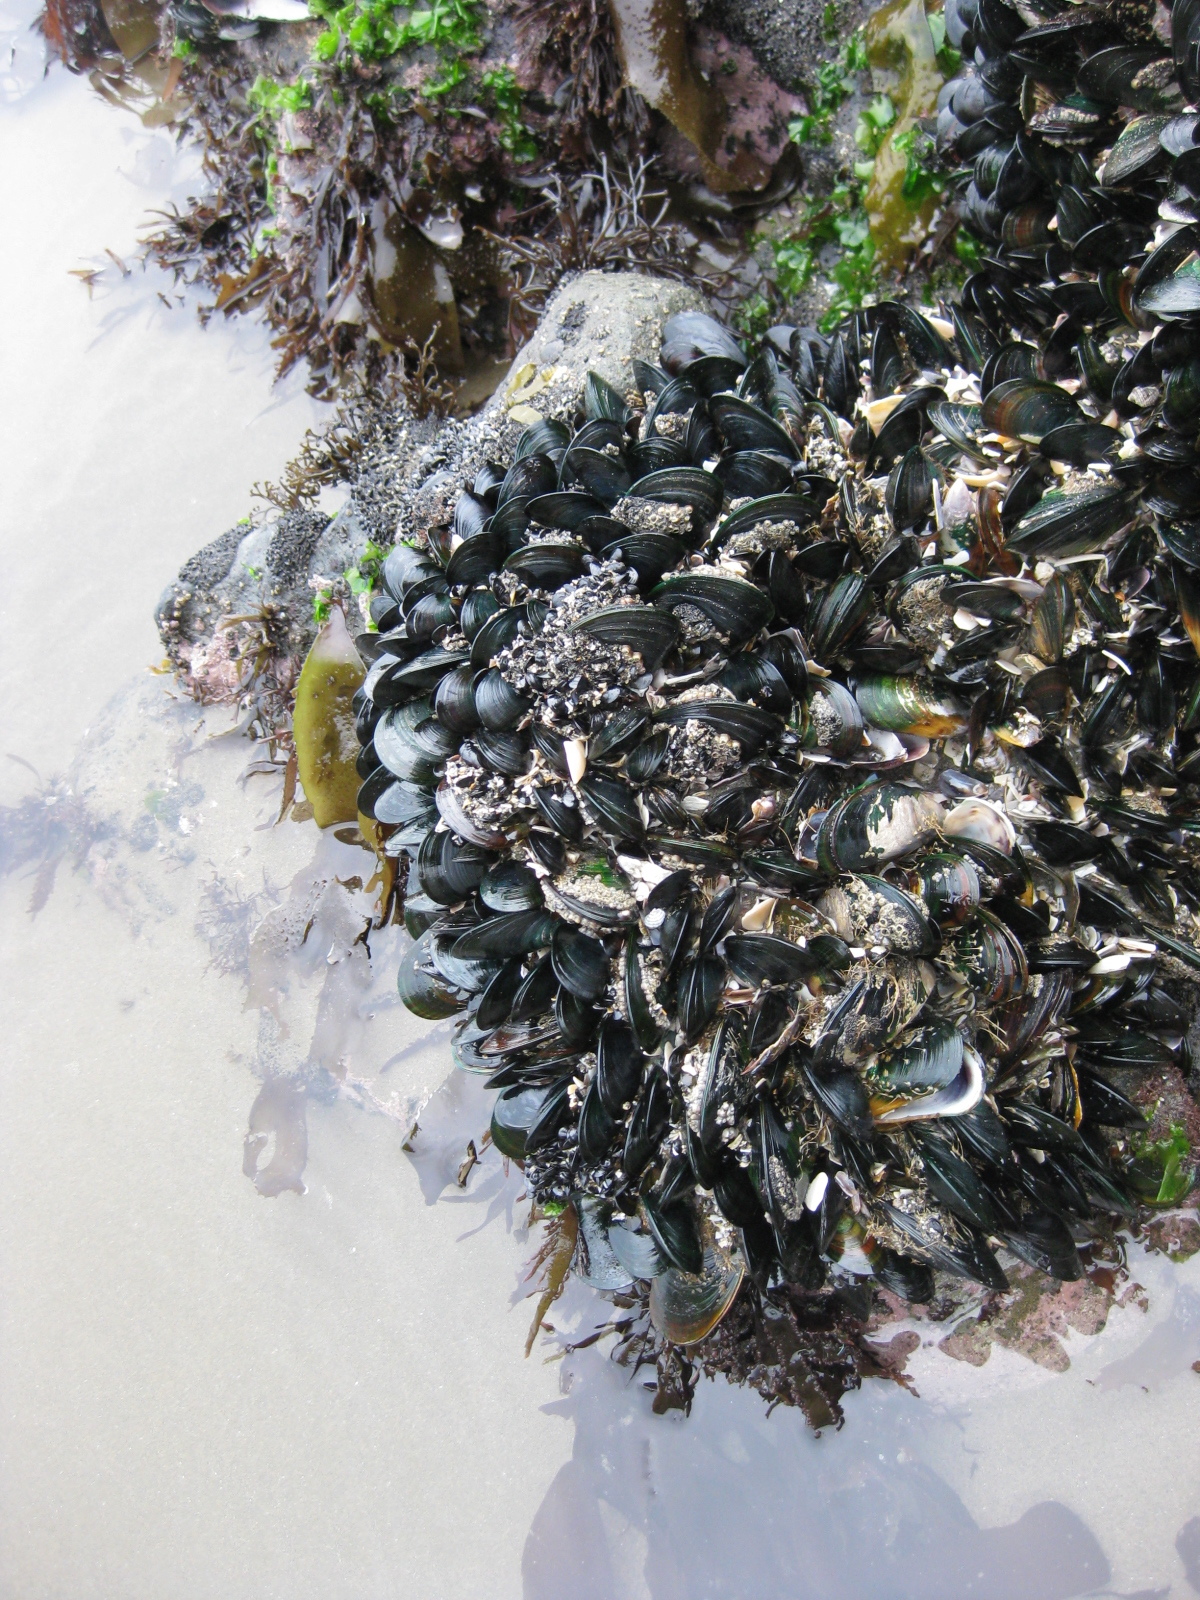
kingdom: Animalia
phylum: Mollusca
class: Gastropoda
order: Neogastropoda
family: Muricidae
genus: Paratrophon
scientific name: Paratrophon cheesemani
